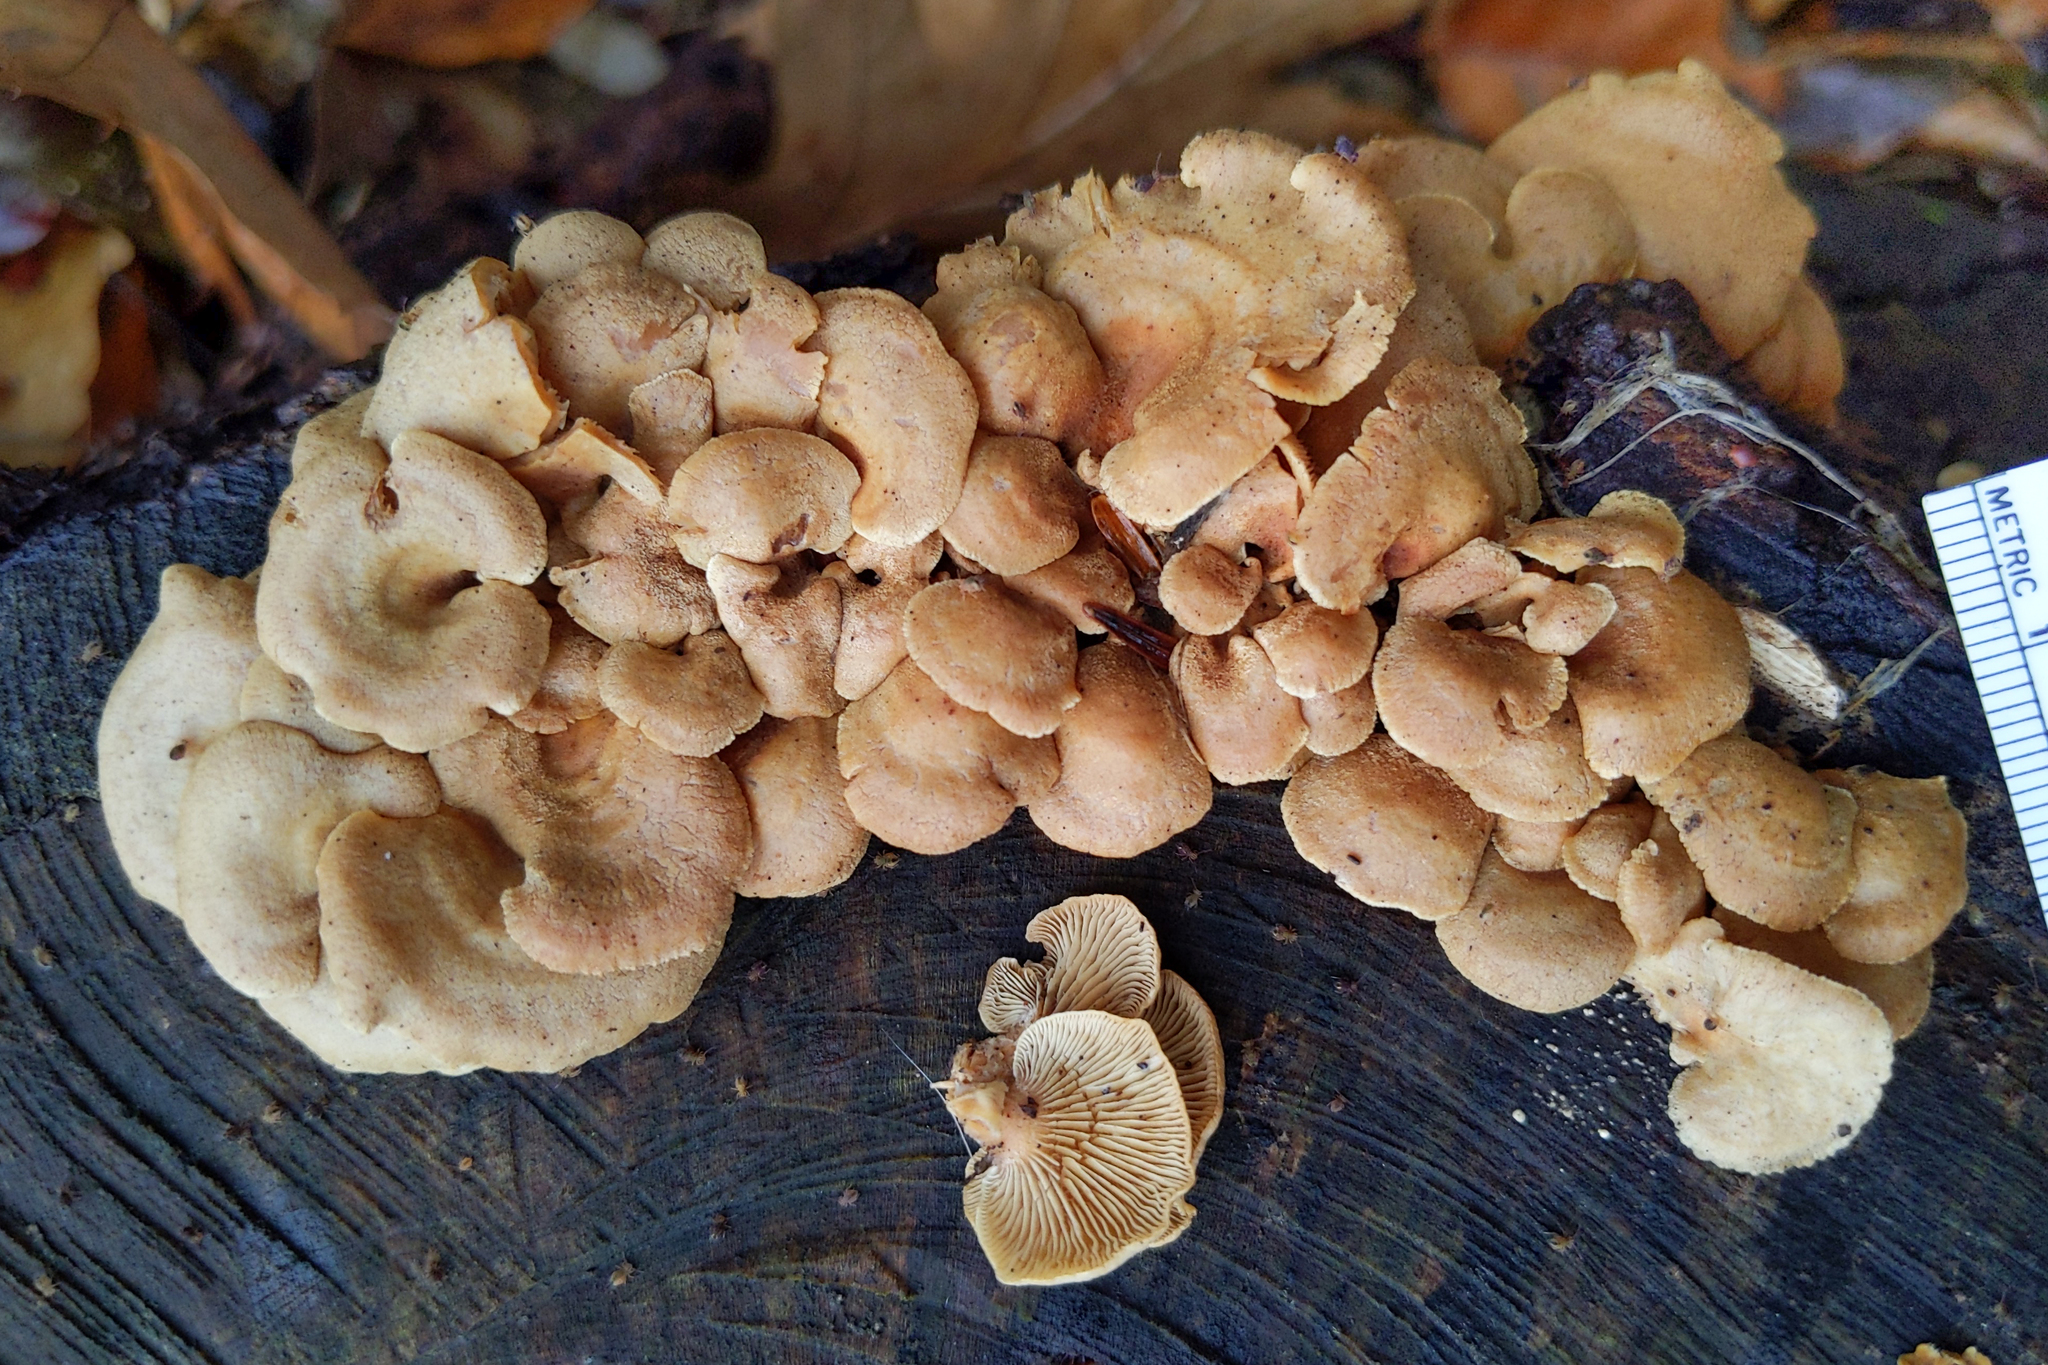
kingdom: Fungi
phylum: Basidiomycota
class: Agaricomycetes
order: Agaricales
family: Mycenaceae
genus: Panellus
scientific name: Panellus stipticus
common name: Bitter oysterling
